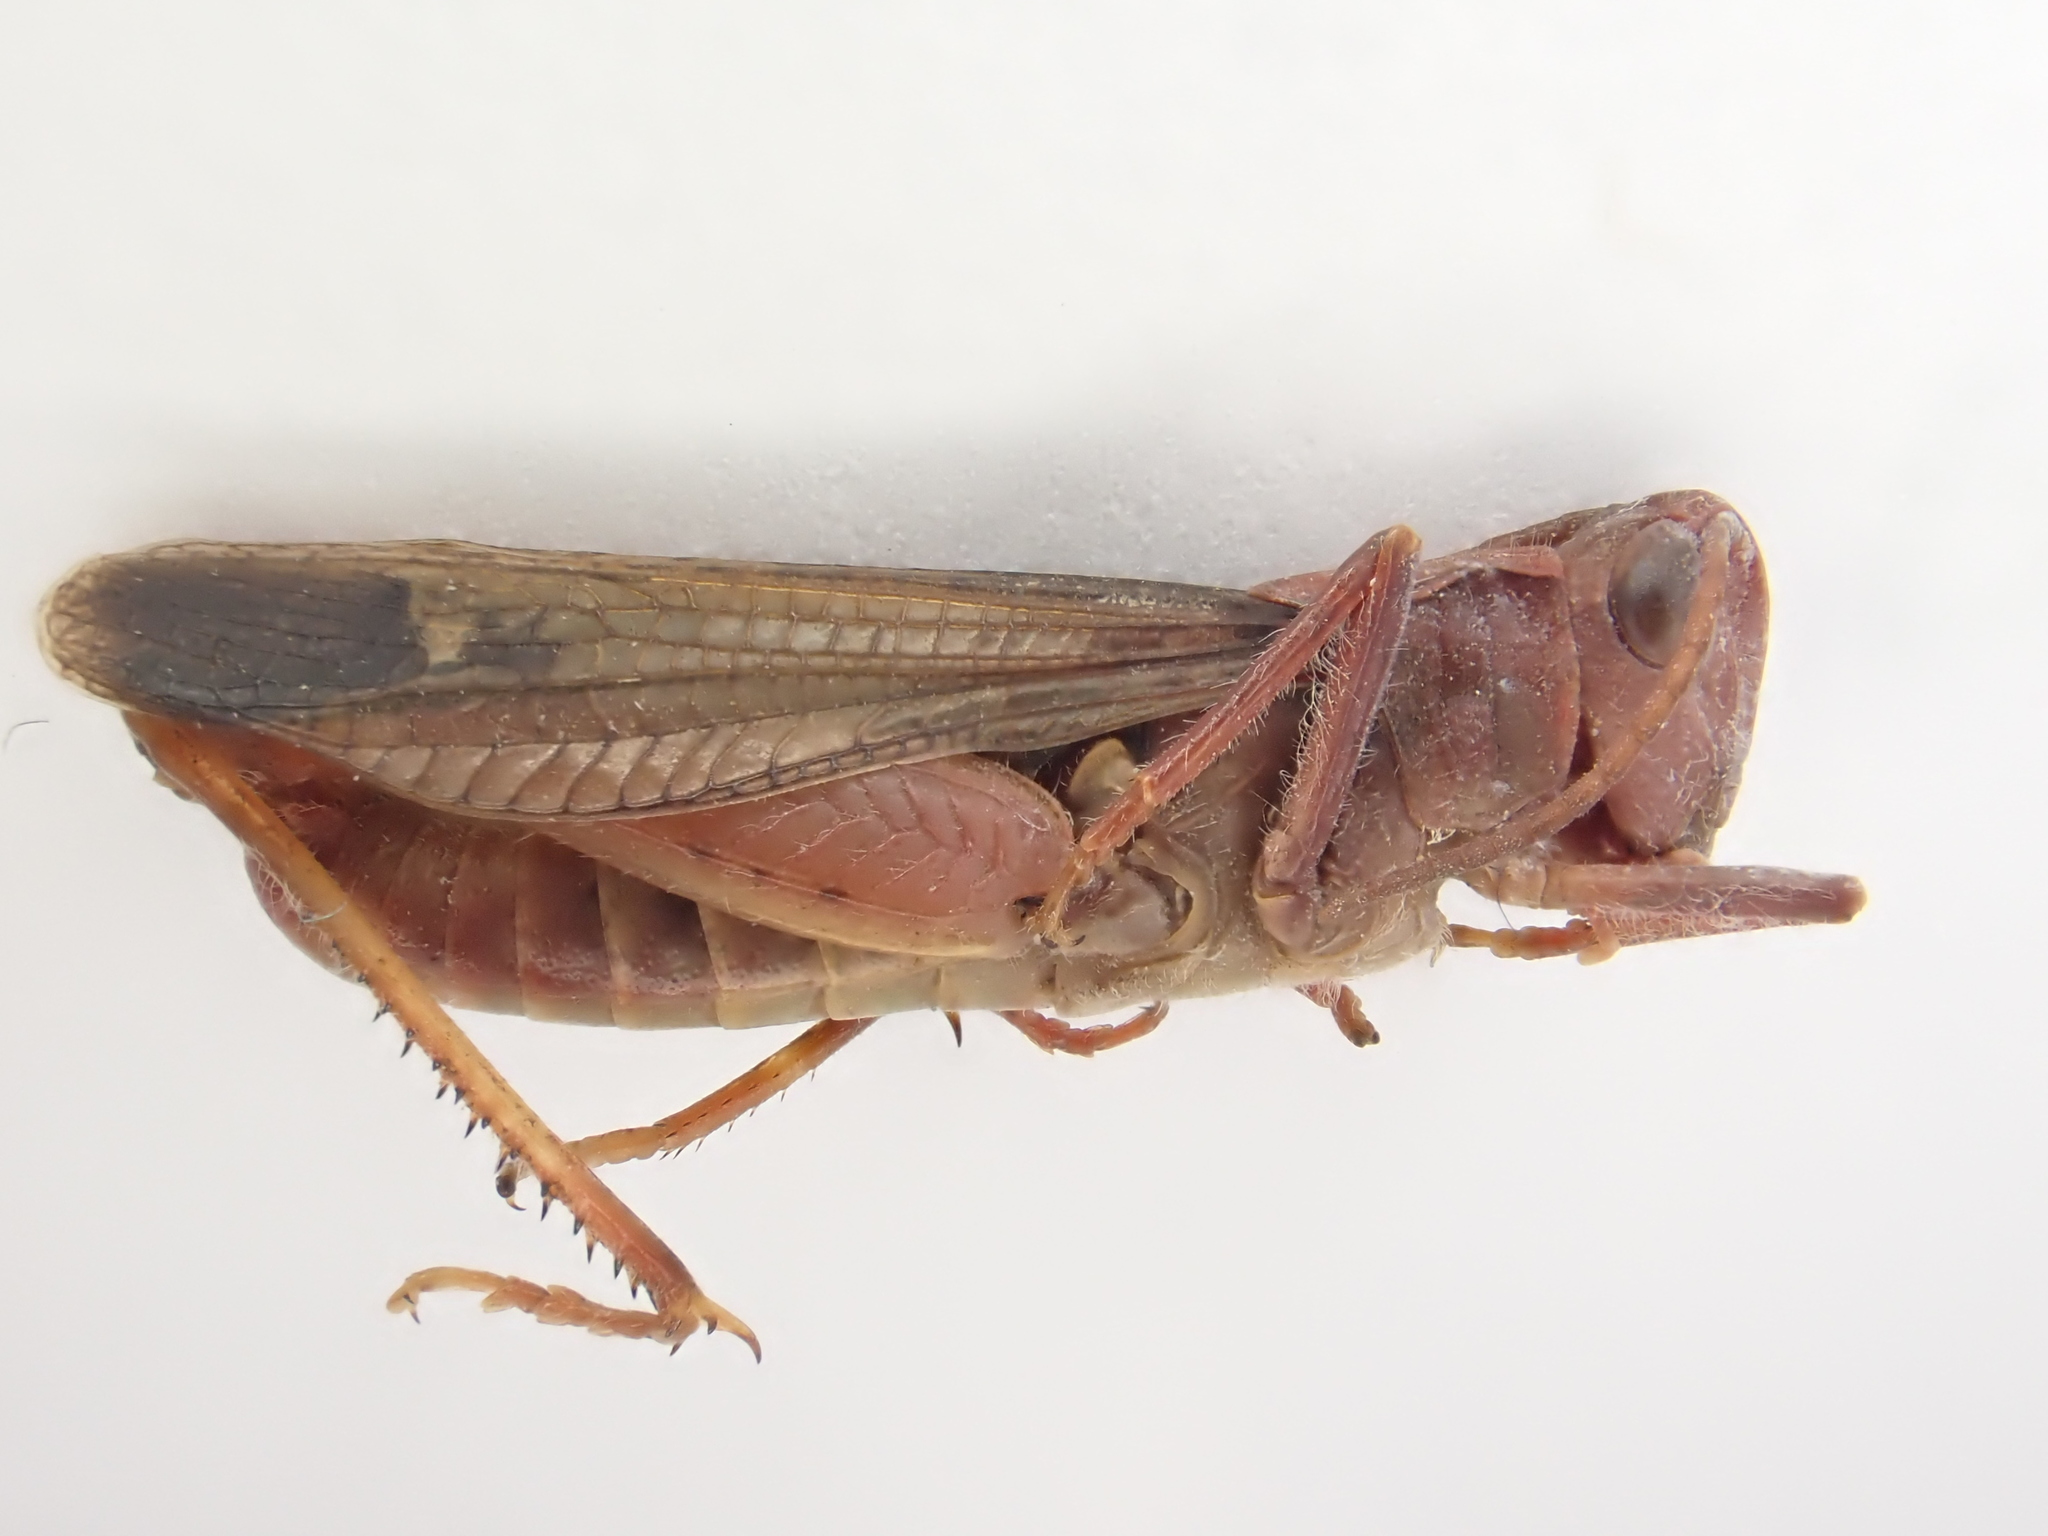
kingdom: Animalia
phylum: Arthropoda
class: Insecta
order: Orthoptera
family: Acrididae
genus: Chorthippus
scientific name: Chorthippus biguttulus
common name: Bow-winged grasshopper
